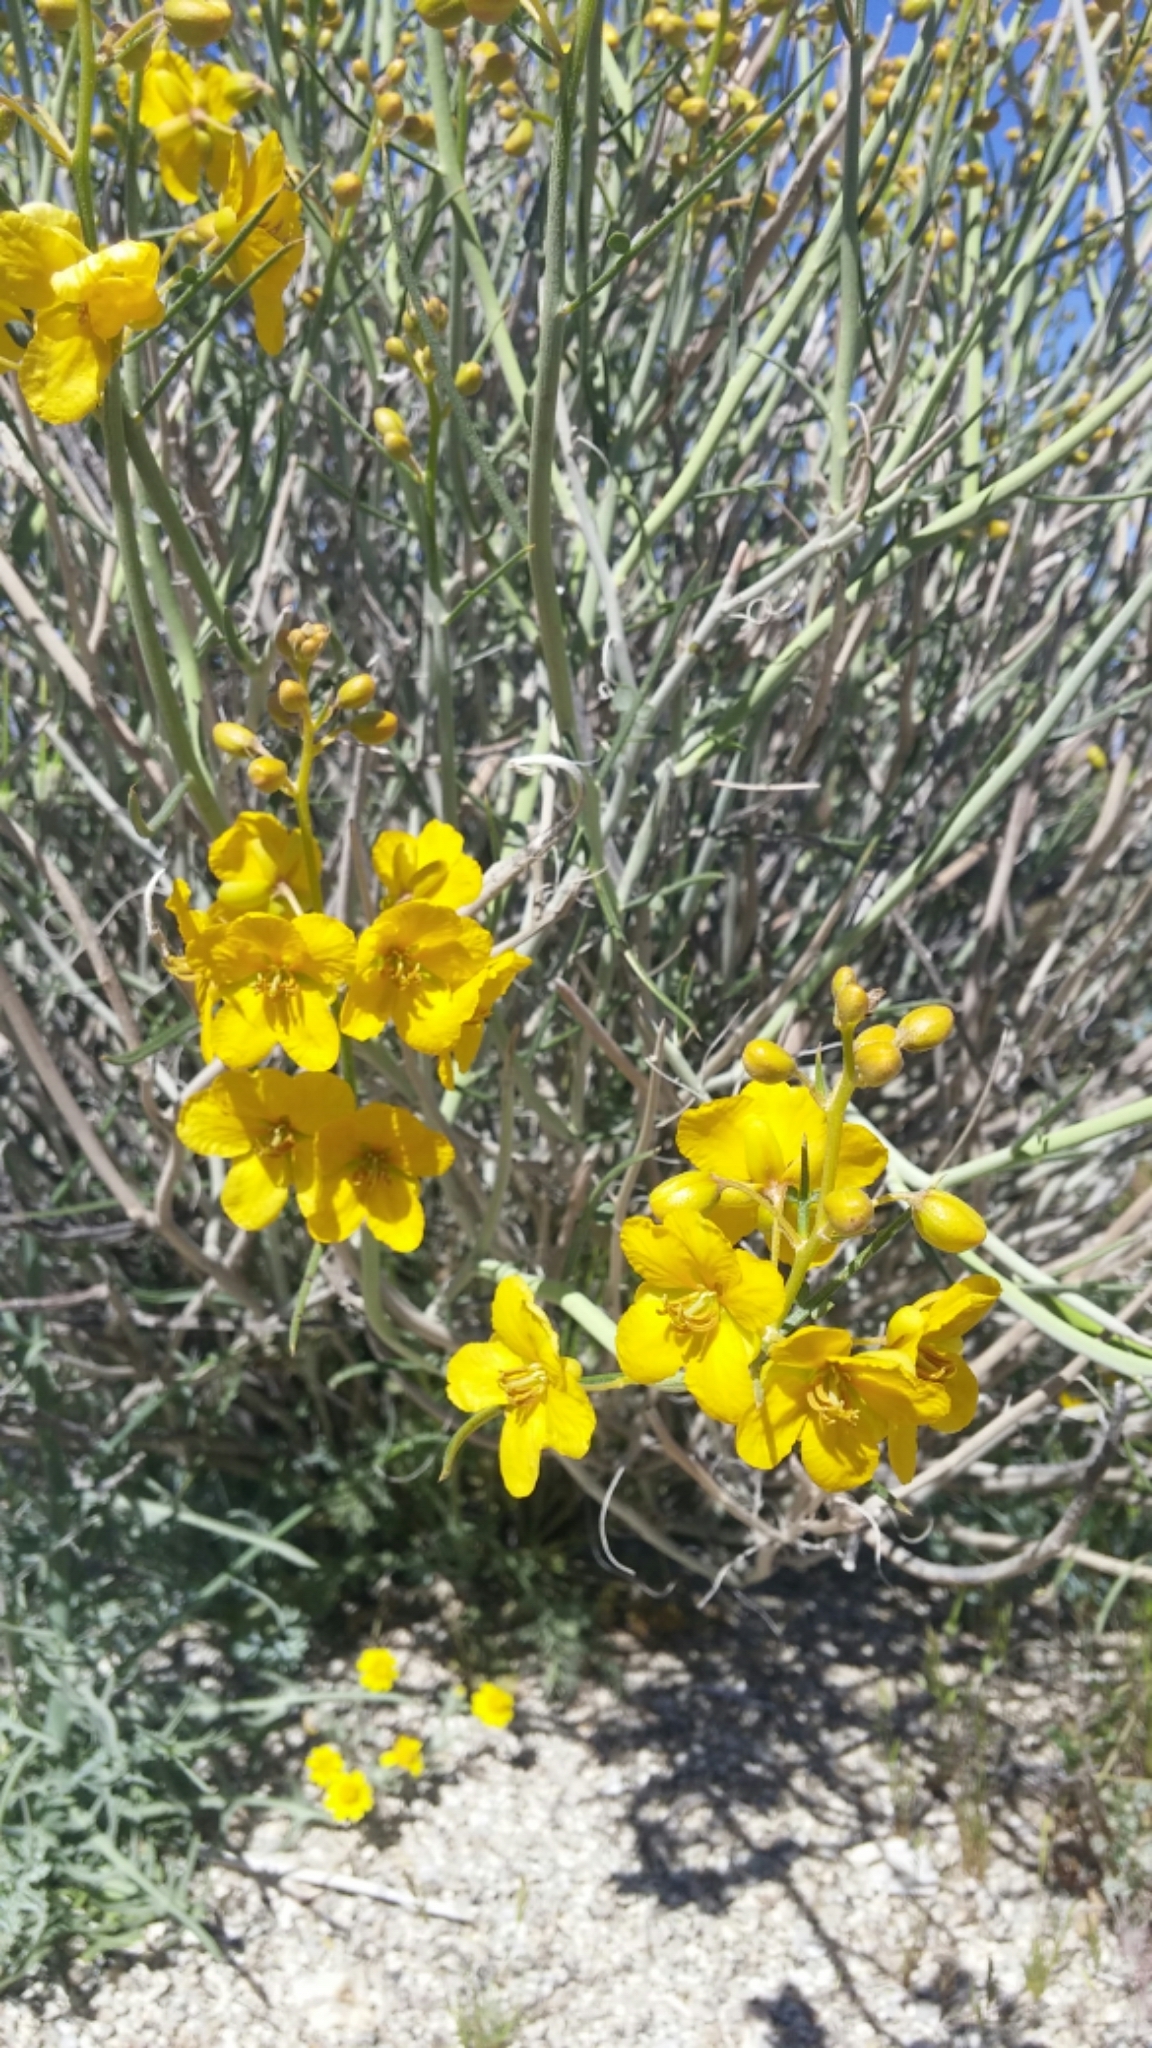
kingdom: Plantae
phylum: Tracheophyta
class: Magnoliopsida
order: Fabales
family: Fabaceae
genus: Senna
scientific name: Senna armata
